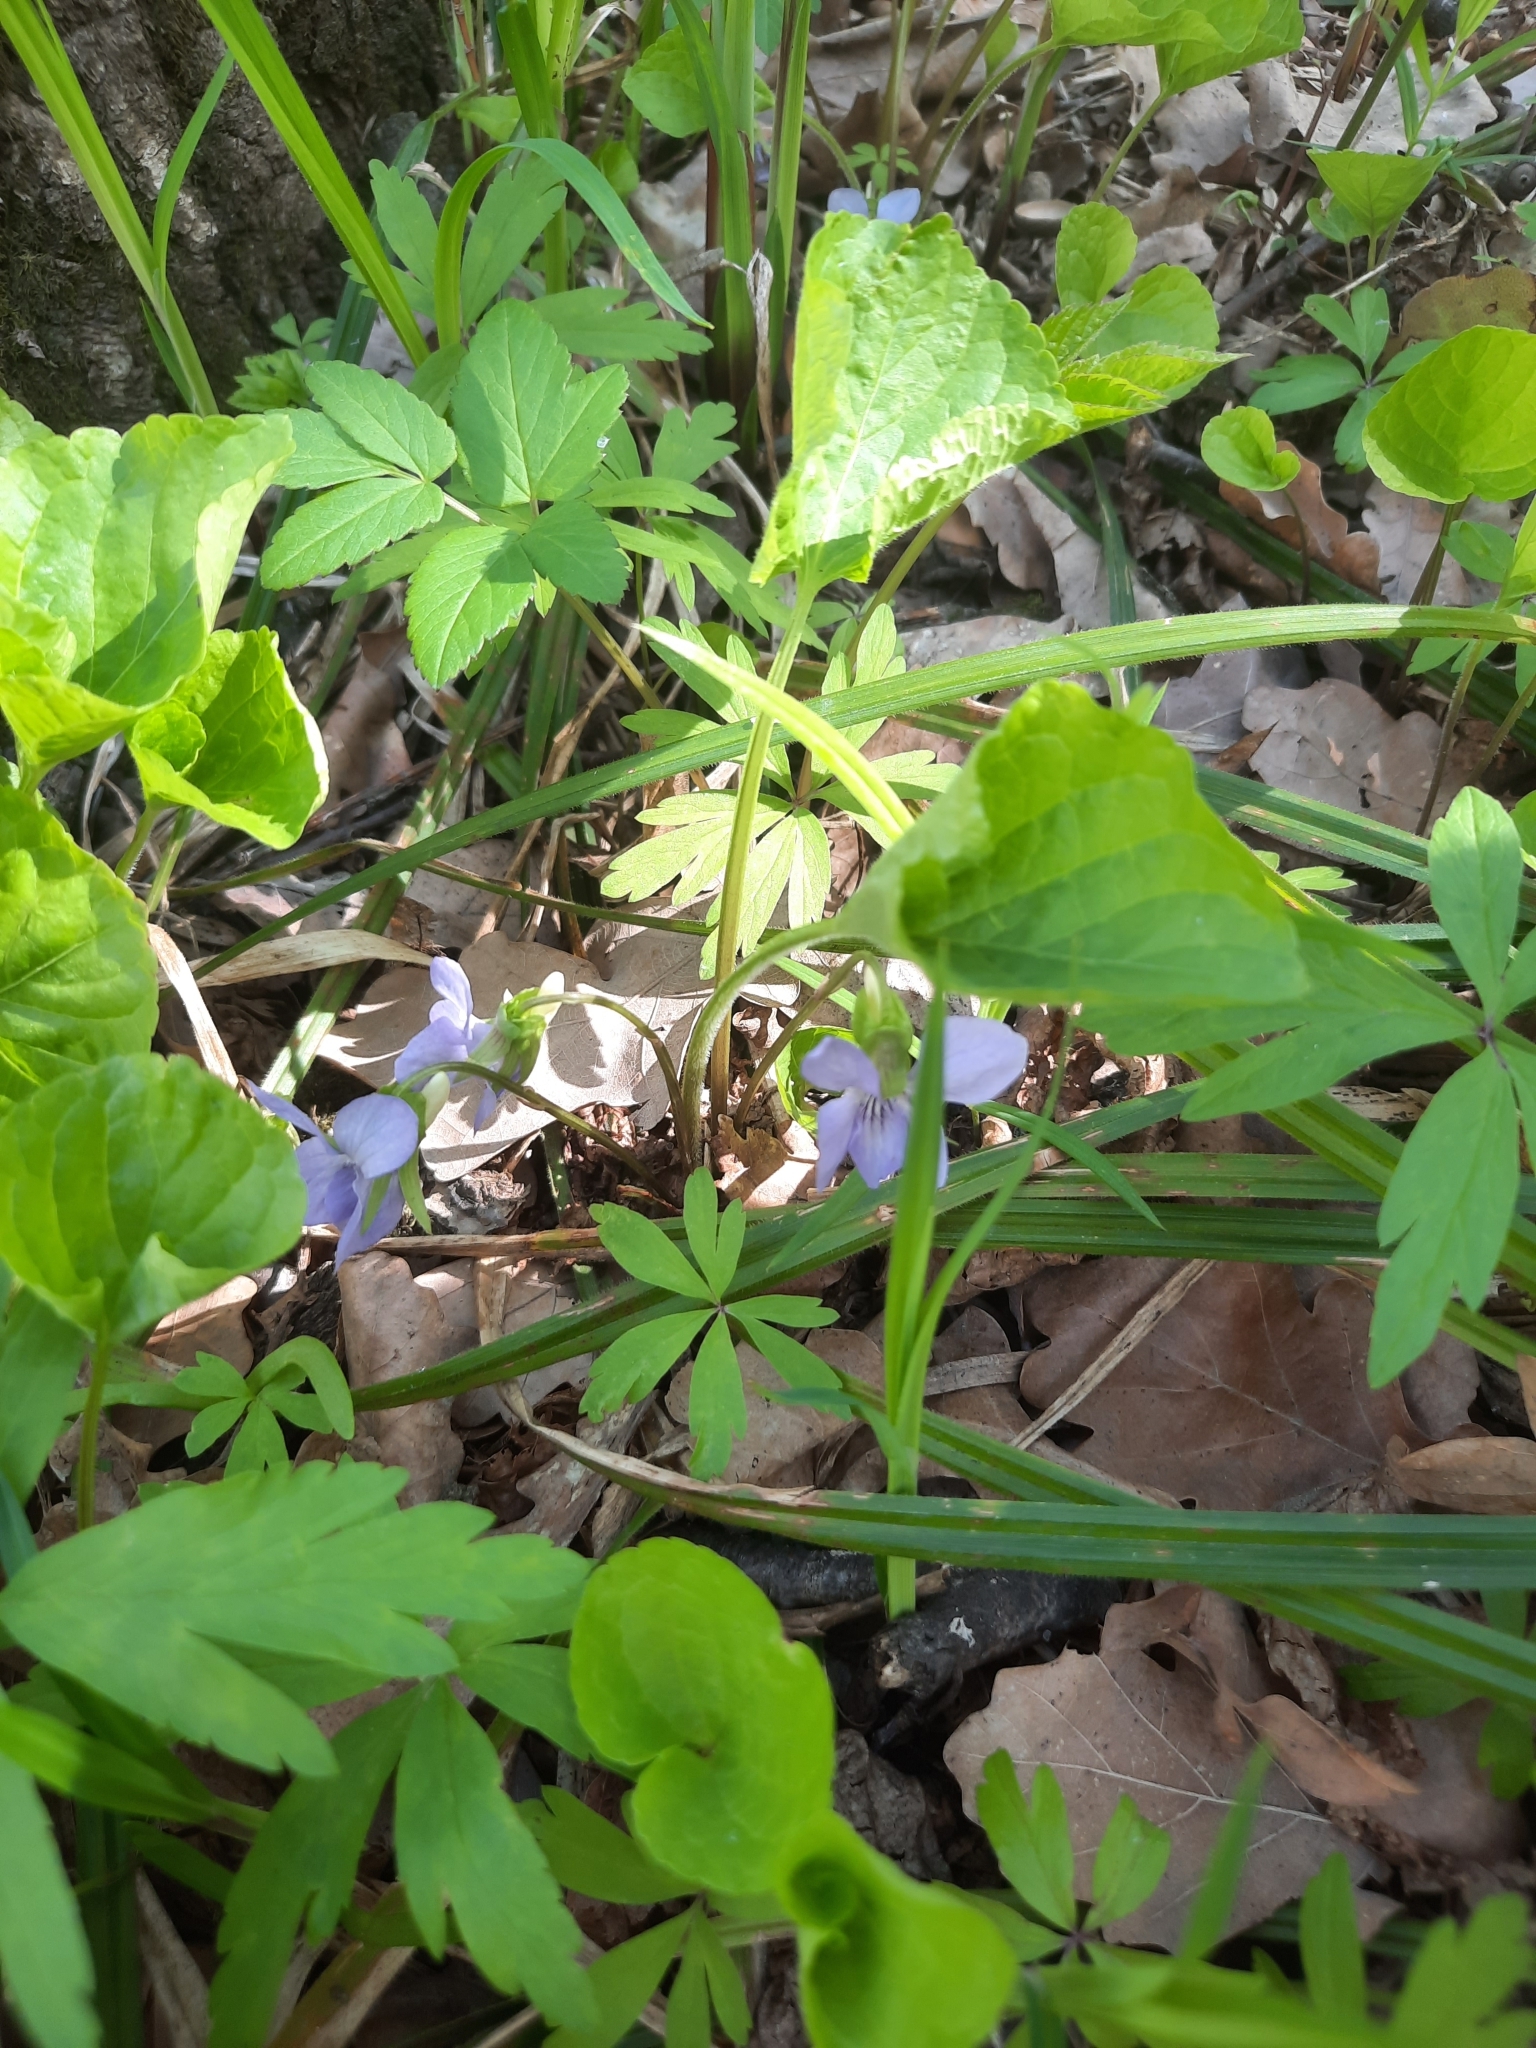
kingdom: Plantae
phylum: Tracheophyta
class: Magnoliopsida
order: Malpighiales
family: Violaceae
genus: Viola
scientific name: Viola mirabilis
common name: Wonder violet
